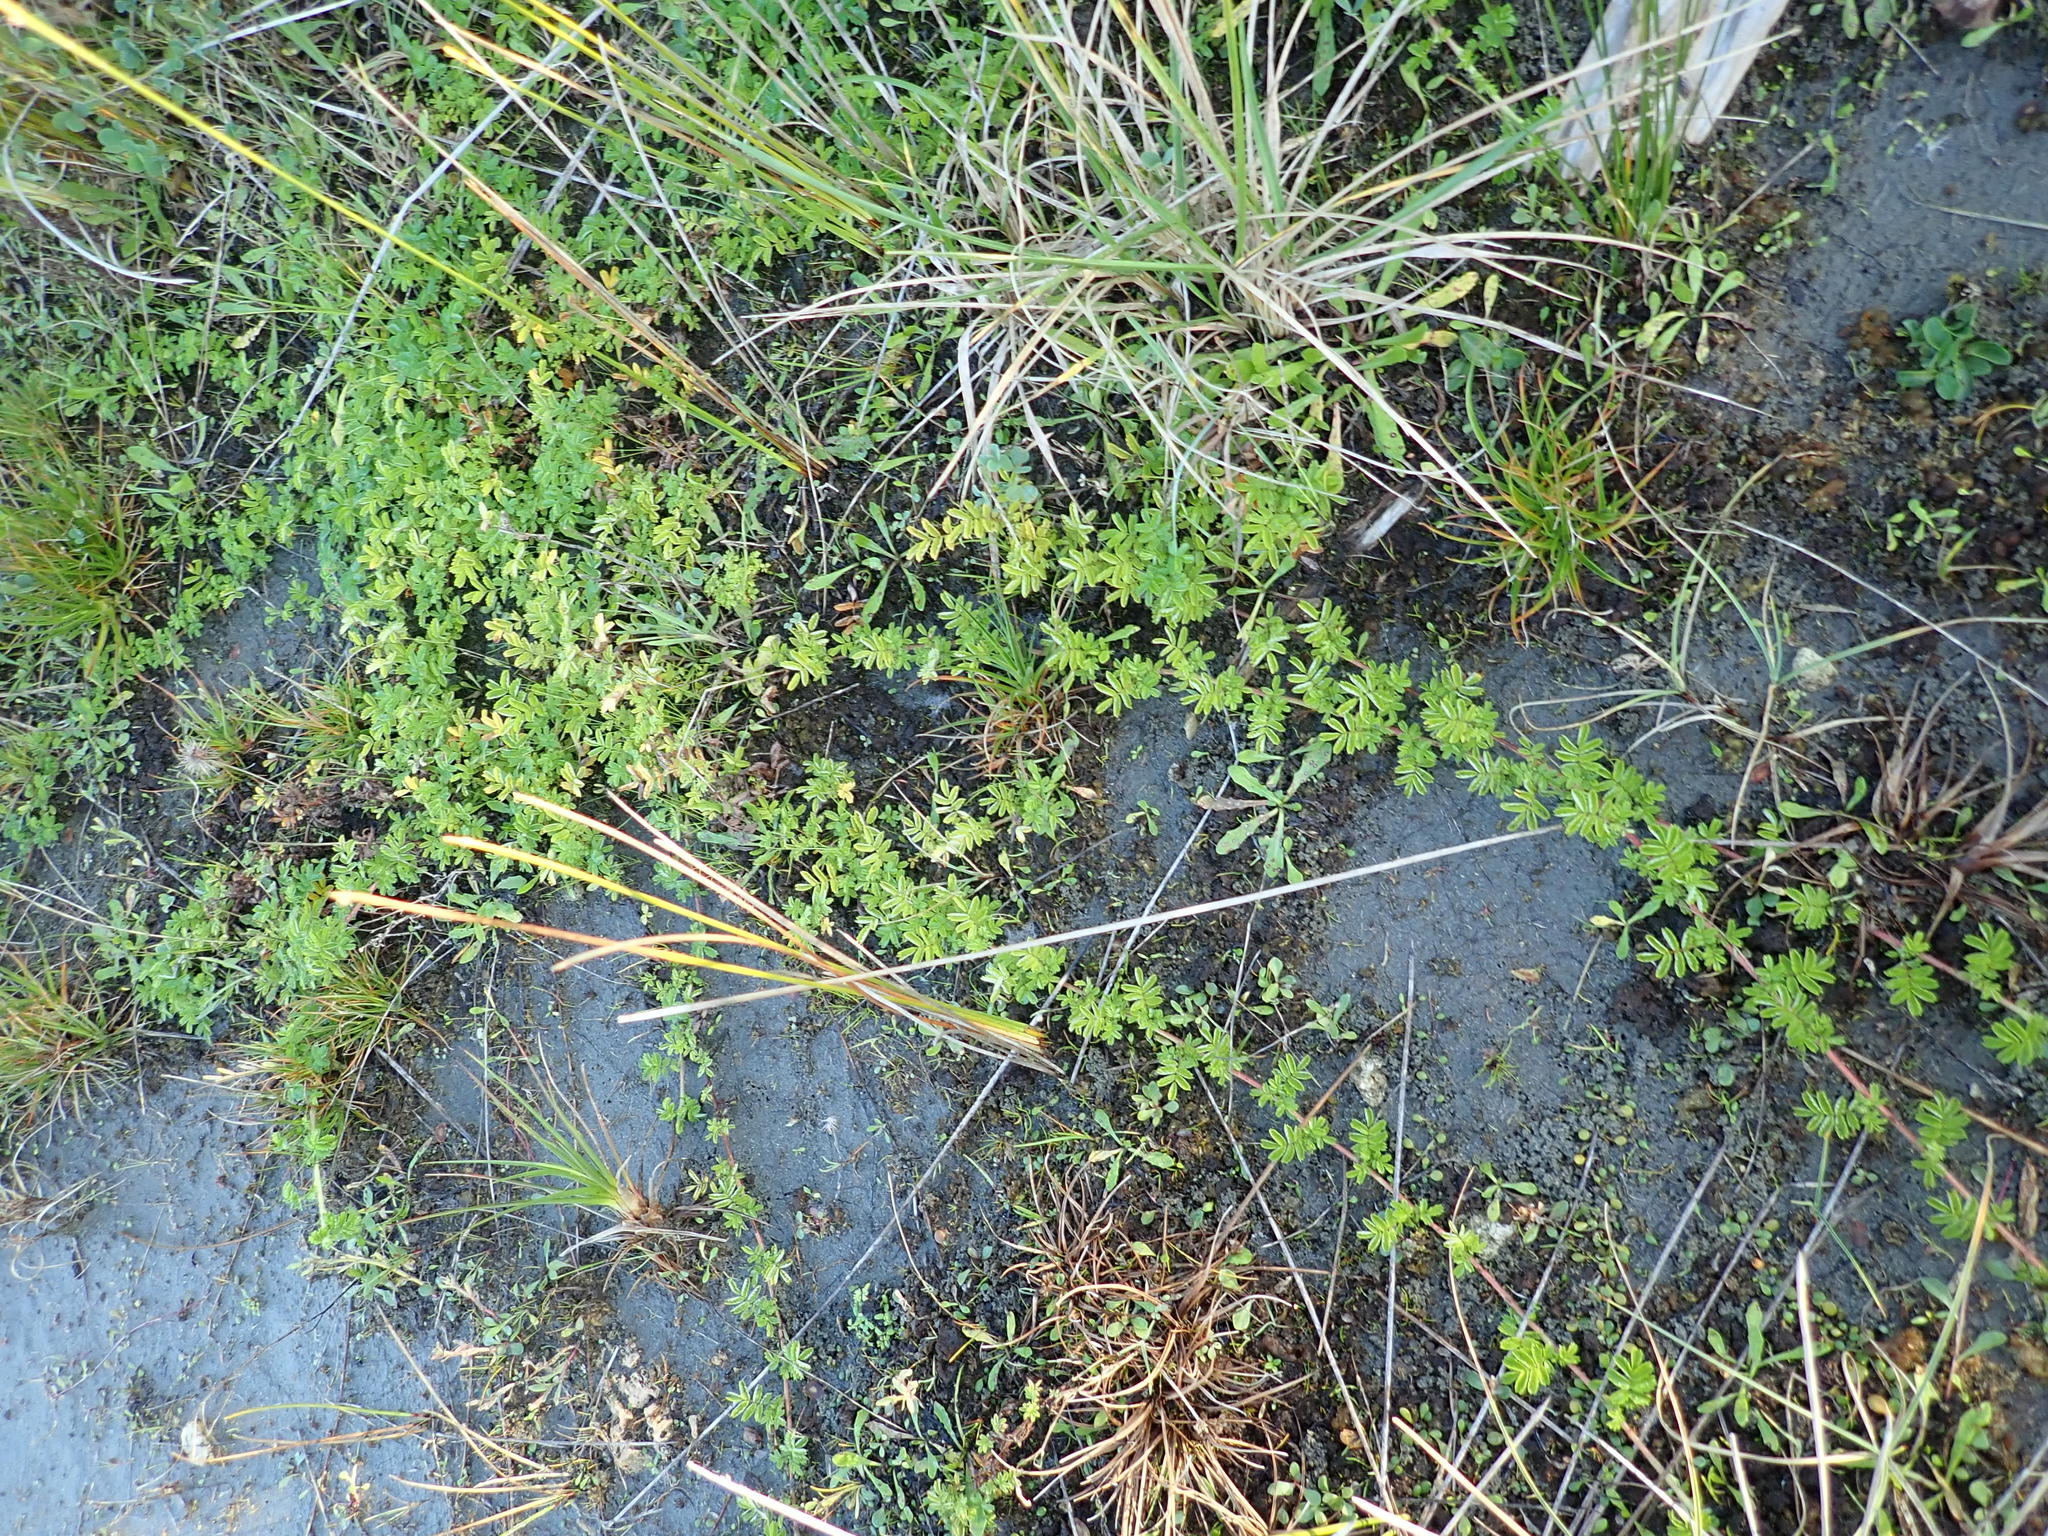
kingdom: Plantae
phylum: Tracheophyta
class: Magnoliopsida
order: Rosales
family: Rosaceae
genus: Acaena
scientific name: Acaena novae-zelandiae
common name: Pirri-pirri-bur
